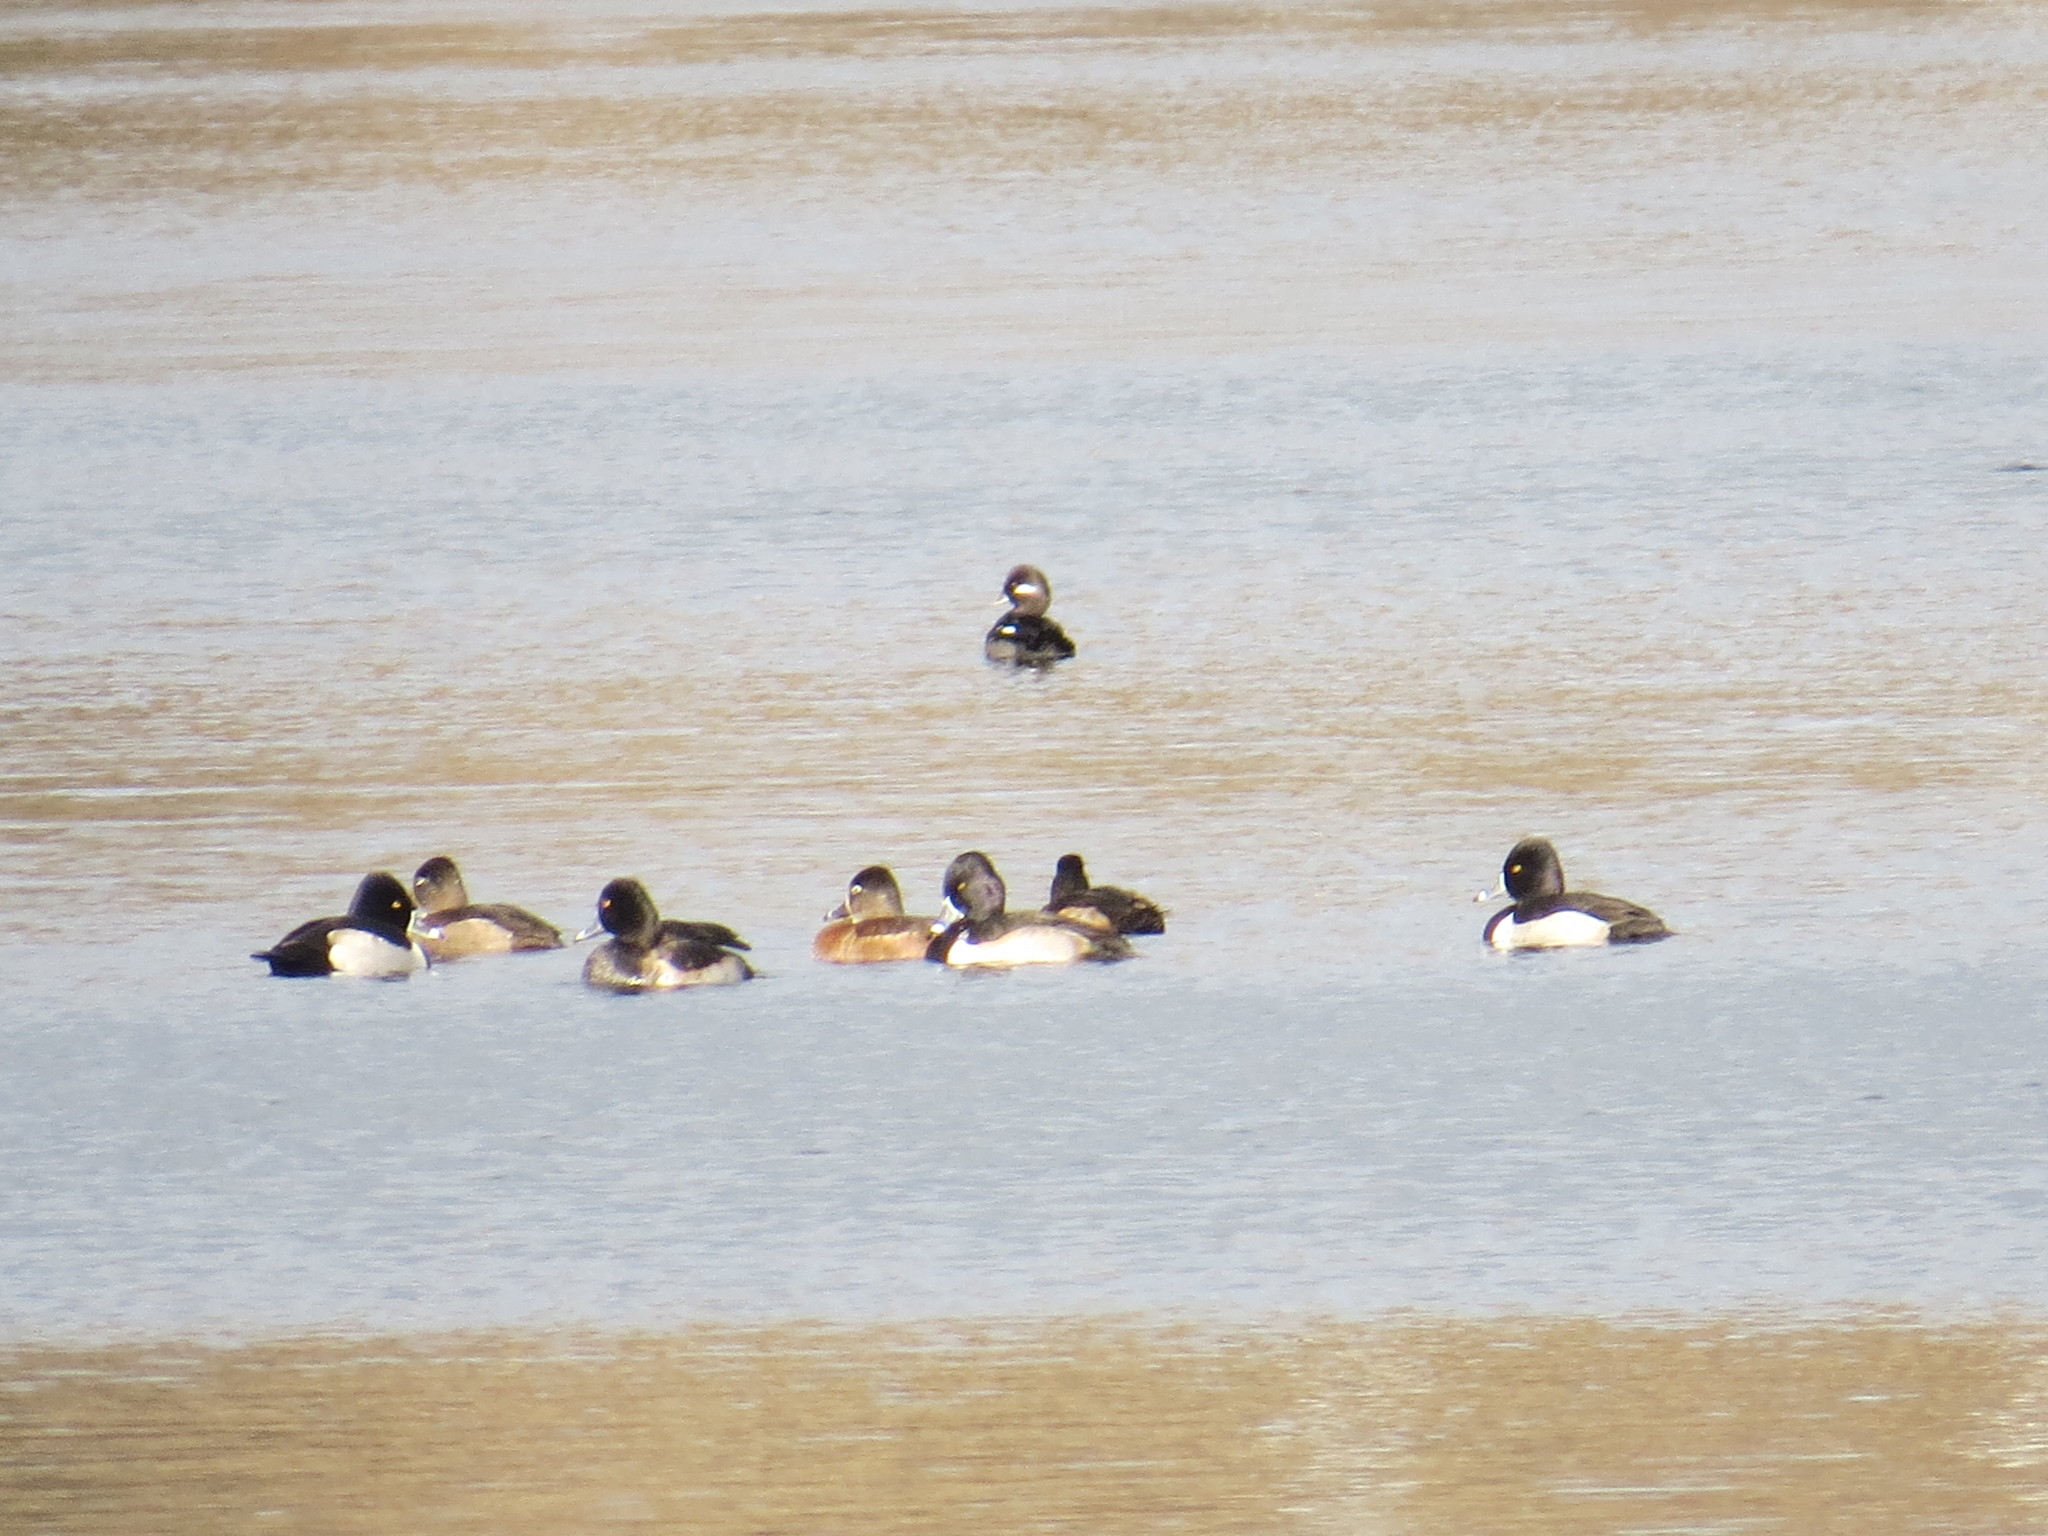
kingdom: Animalia
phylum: Chordata
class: Aves
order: Anseriformes
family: Anatidae
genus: Aythya
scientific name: Aythya collaris
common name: Ring-necked duck
